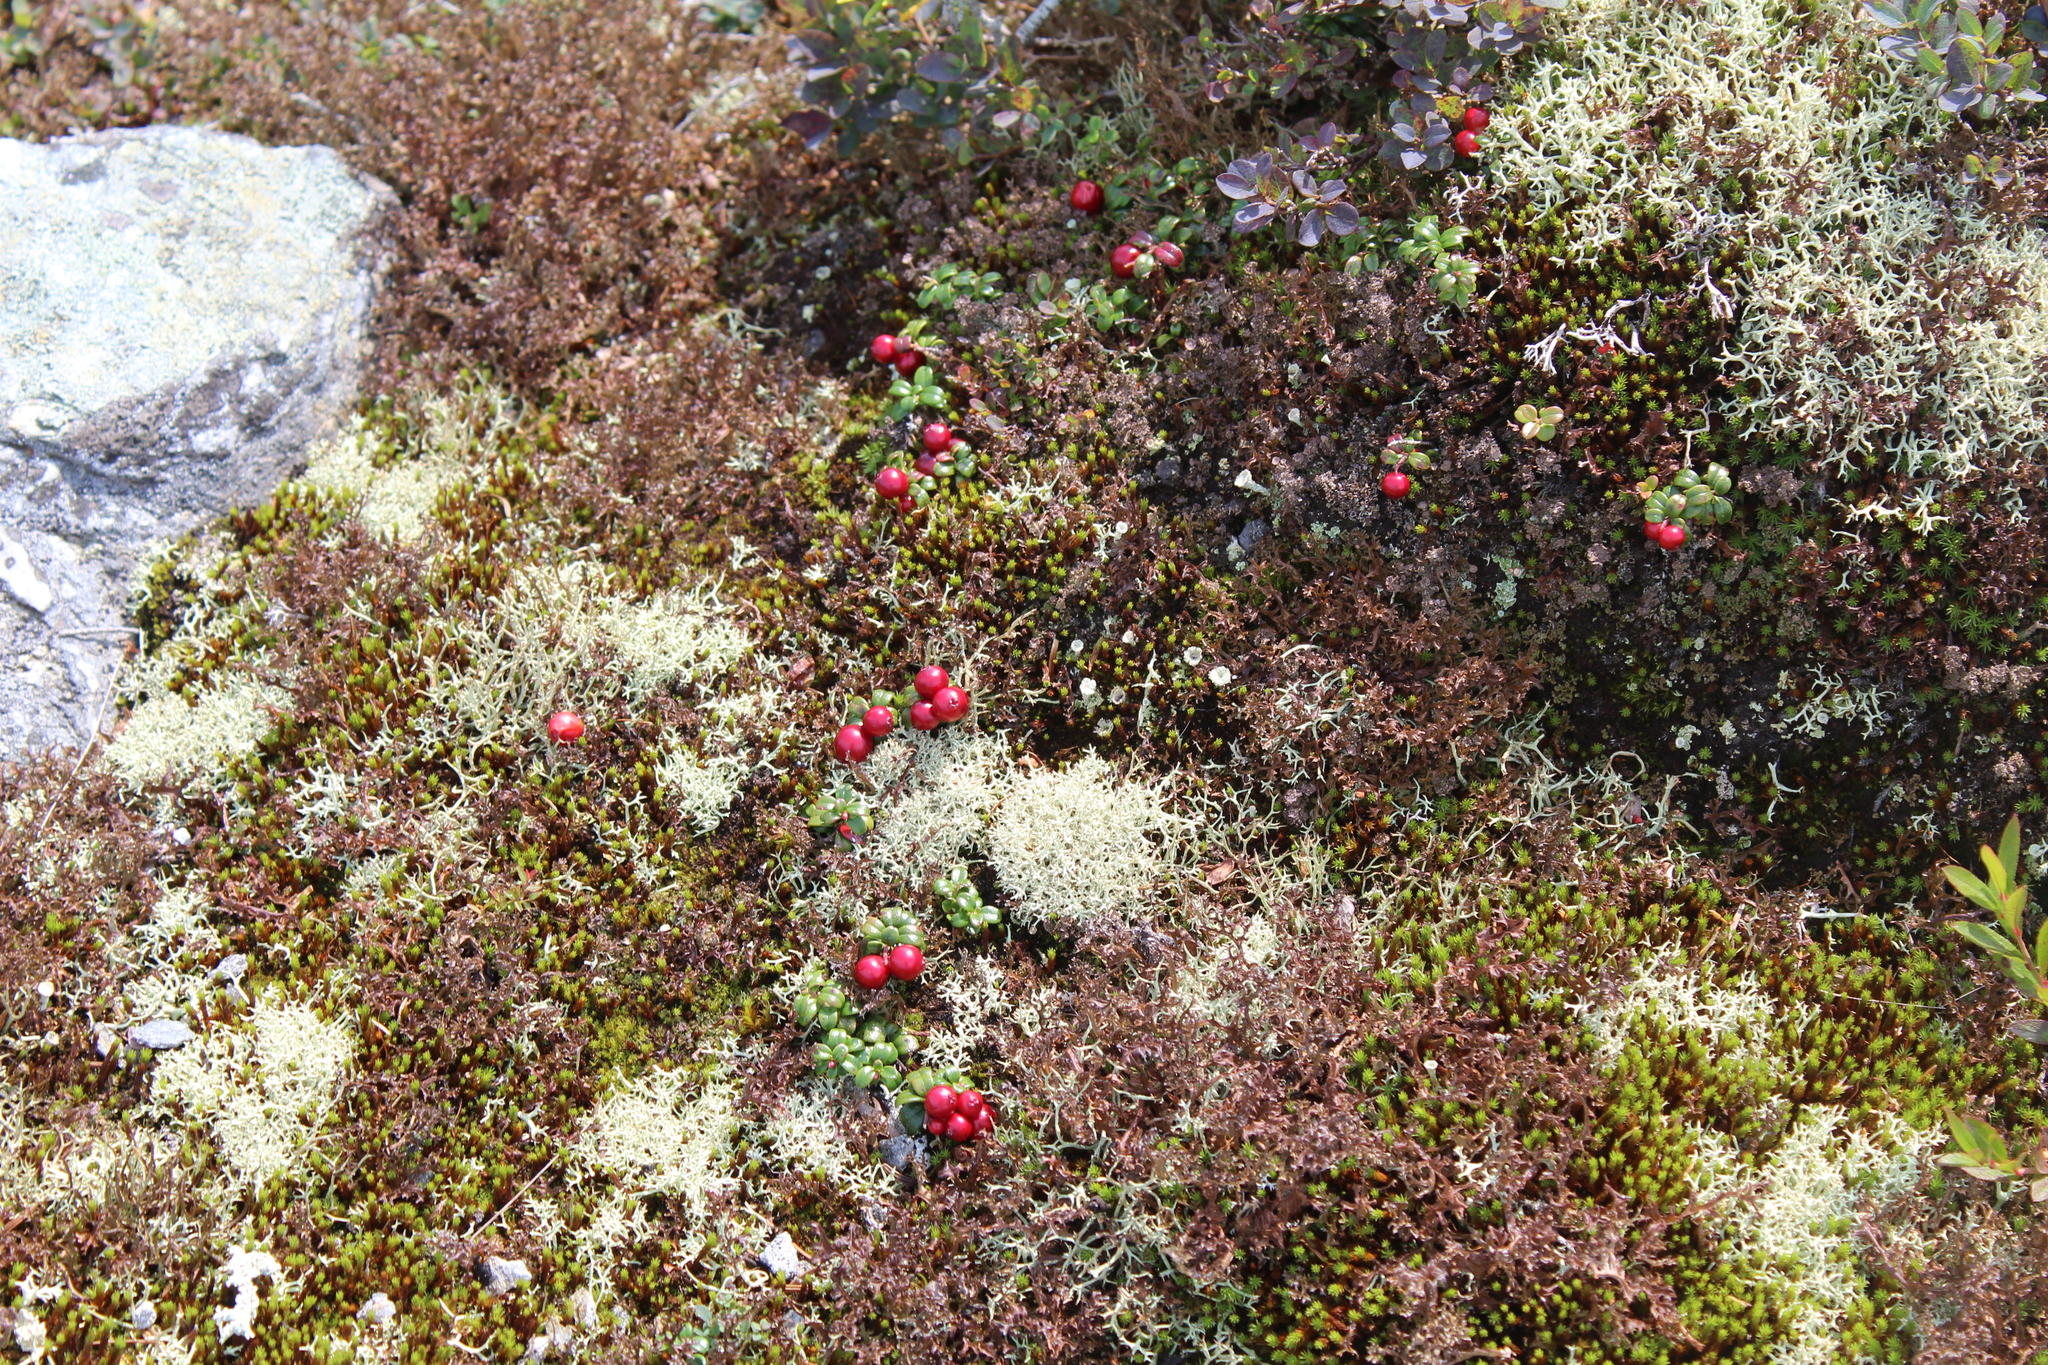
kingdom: Plantae
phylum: Tracheophyta
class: Magnoliopsida
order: Ericales
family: Ericaceae
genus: Vaccinium
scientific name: Vaccinium vitis-idaea
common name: Cowberry
